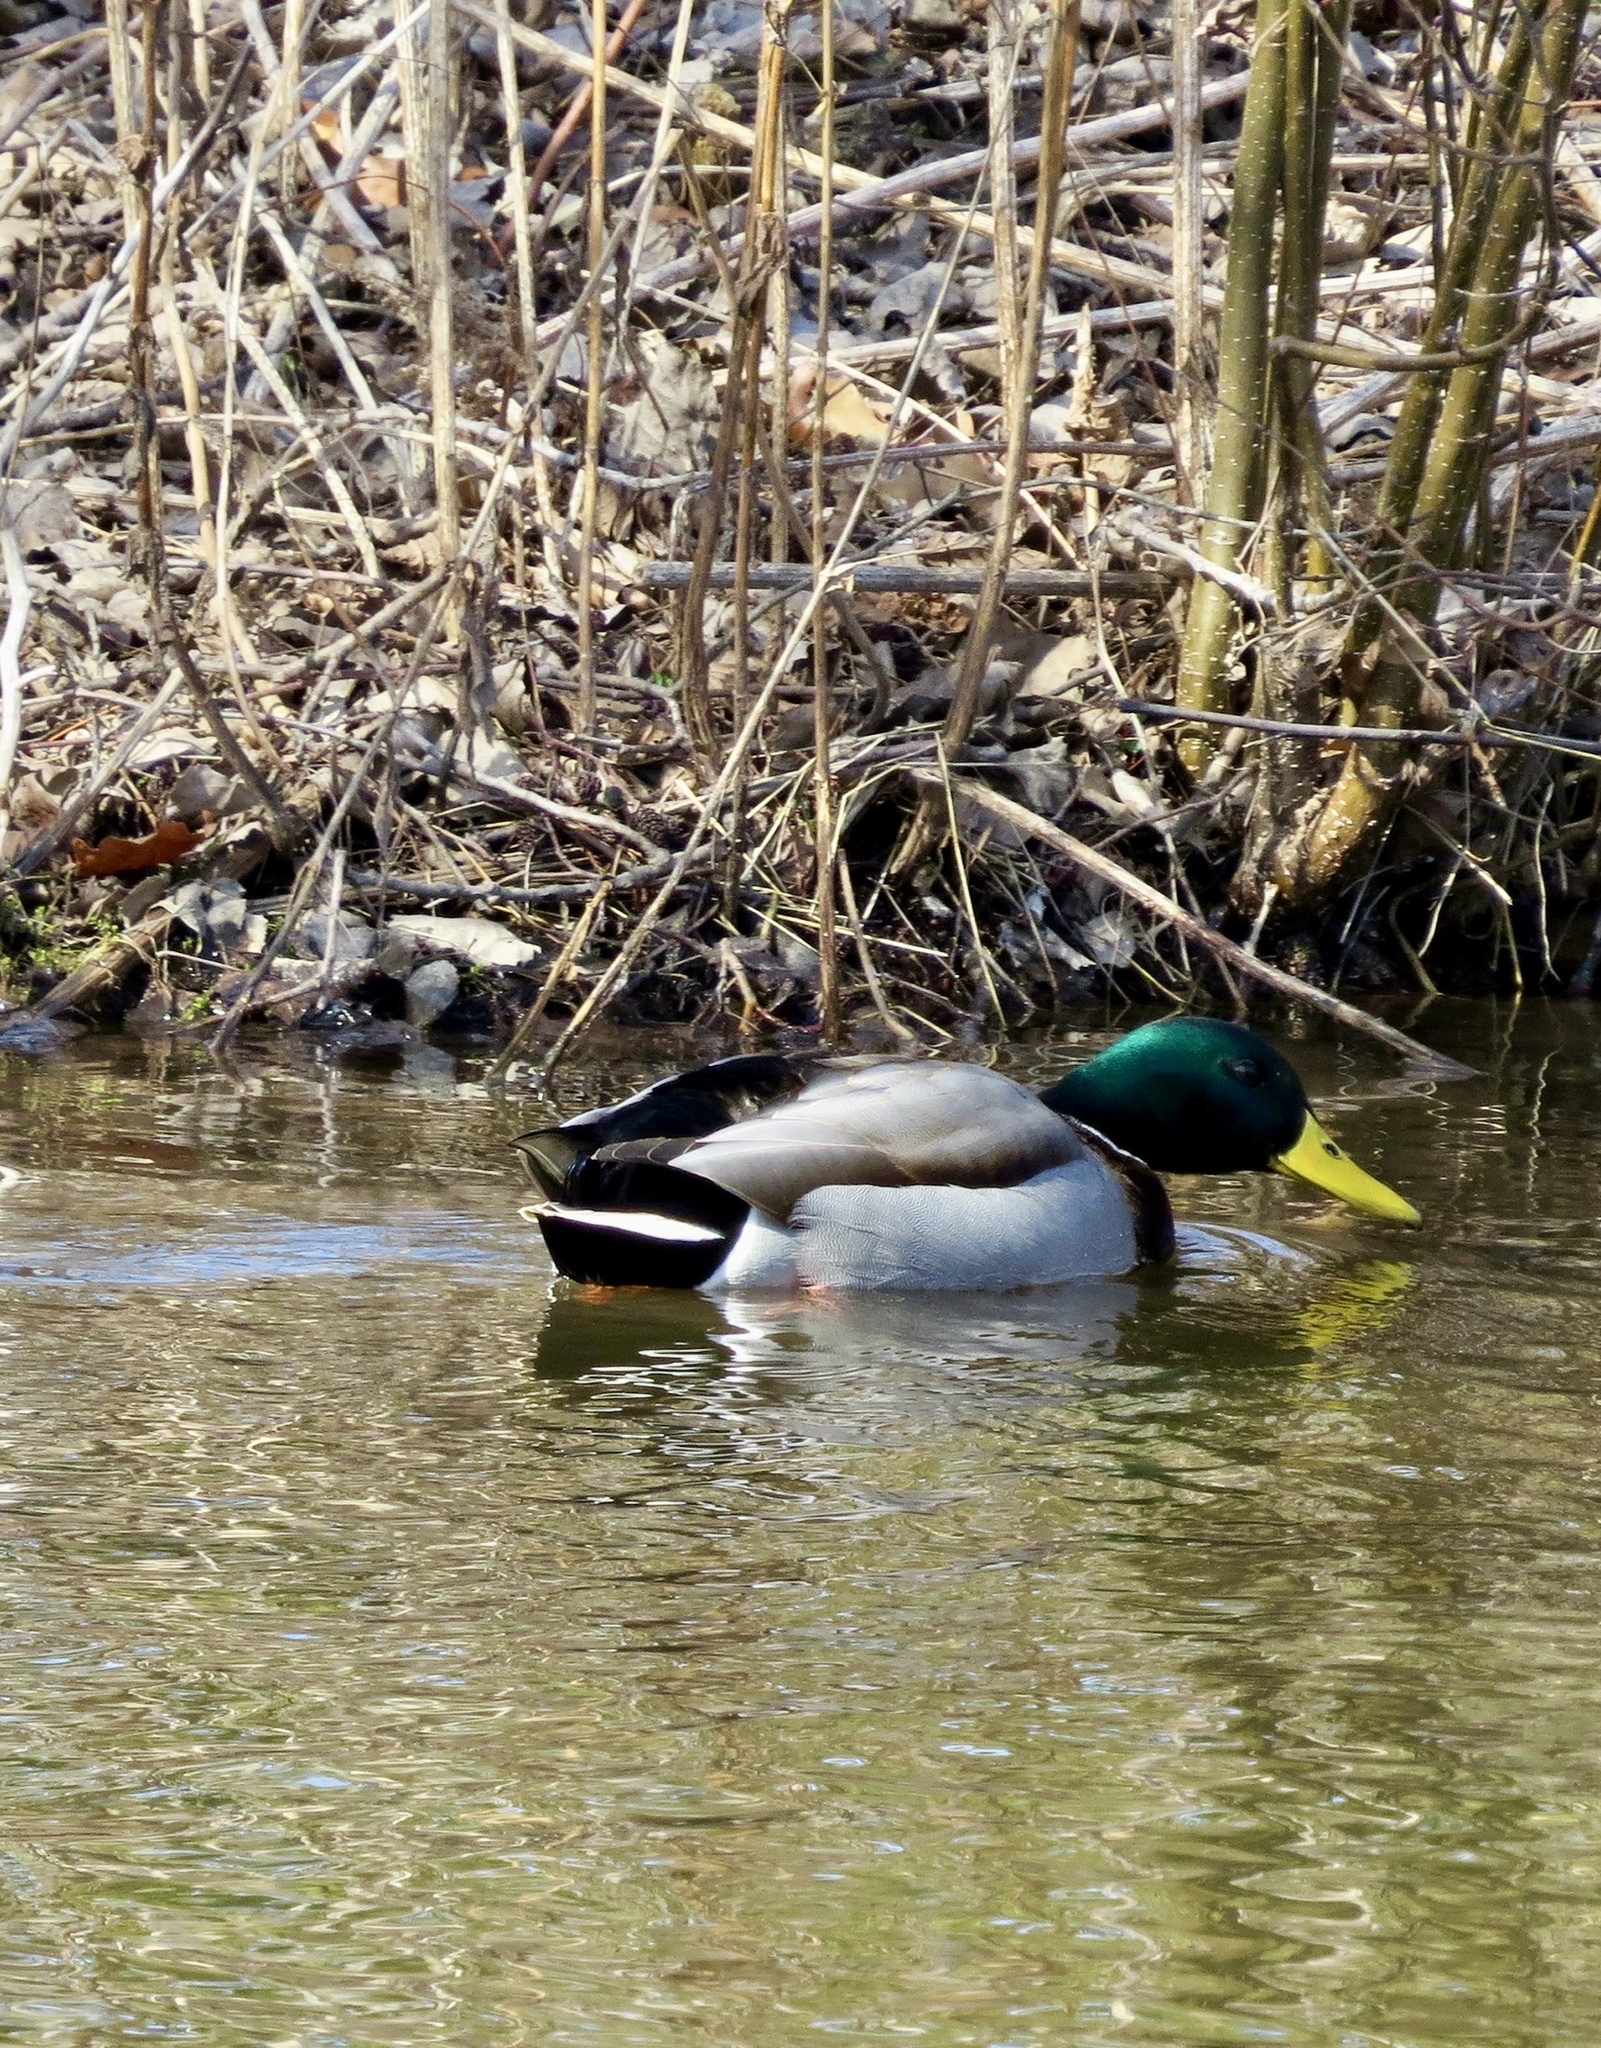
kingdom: Animalia
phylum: Chordata
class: Aves
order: Anseriformes
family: Anatidae
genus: Anas
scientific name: Anas platyrhynchos
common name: Mallard
